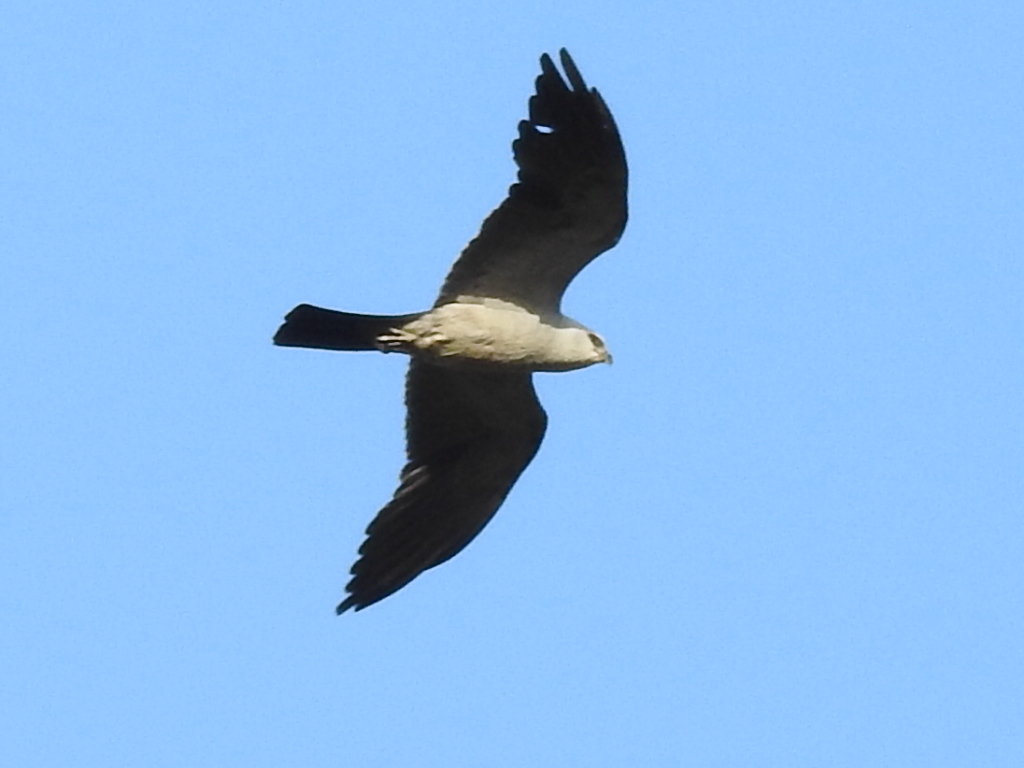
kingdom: Animalia
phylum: Chordata
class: Aves
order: Accipitriformes
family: Accipitridae
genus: Ictinia
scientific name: Ictinia mississippiensis
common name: Mississippi kite
